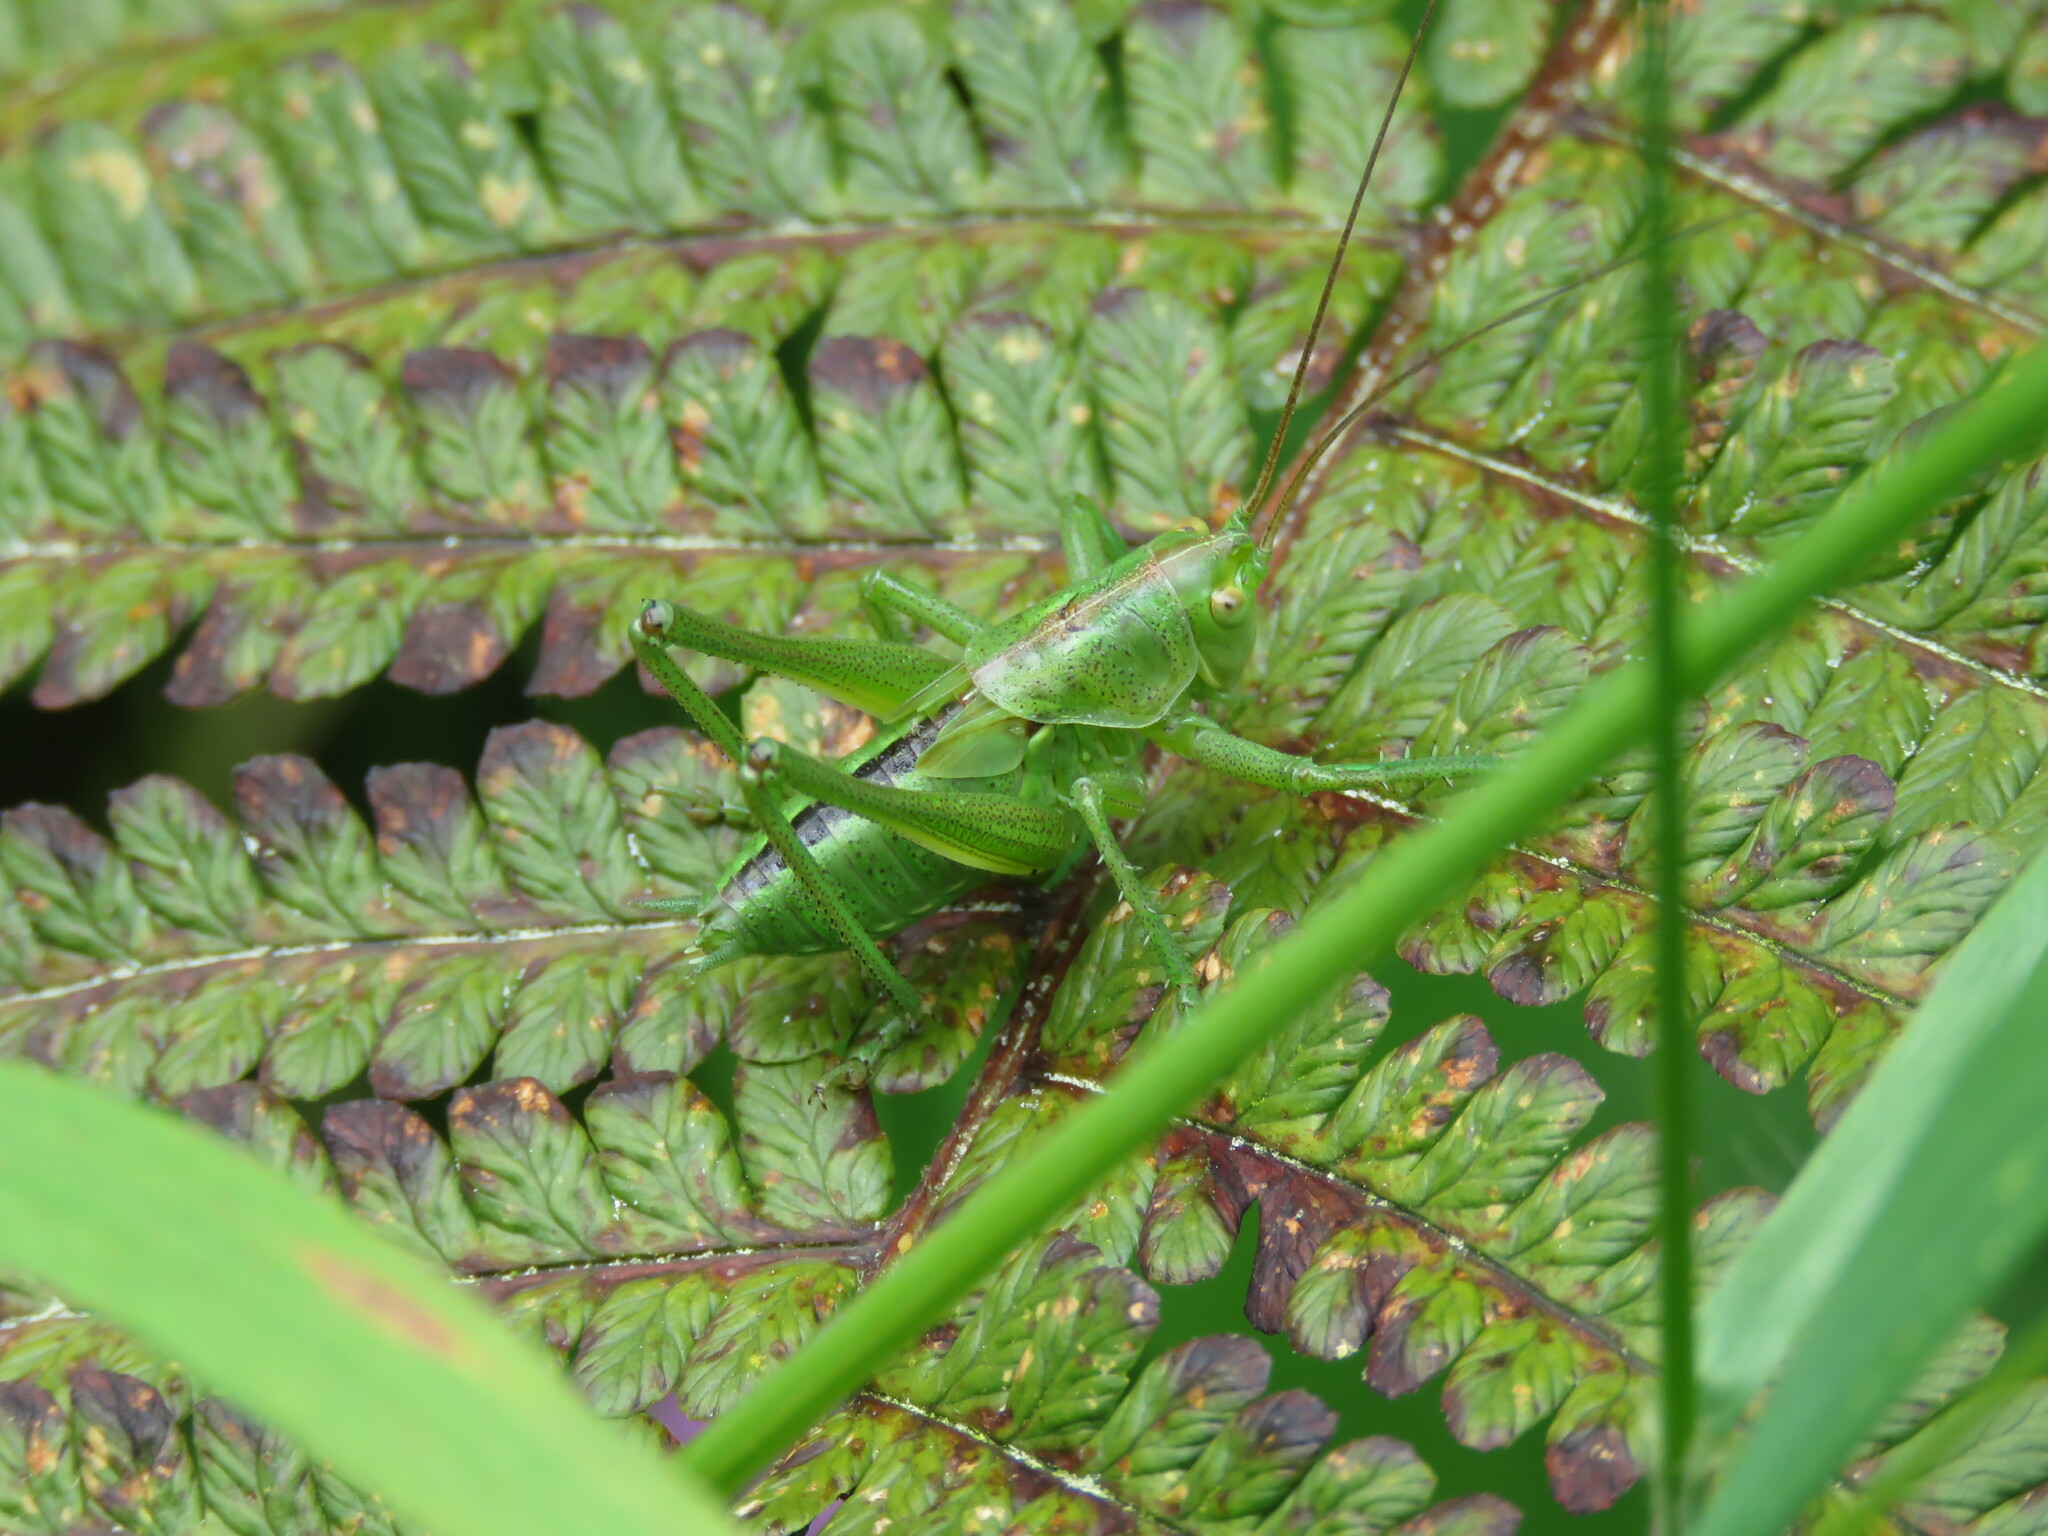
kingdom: Animalia
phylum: Arthropoda
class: Insecta
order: Orthoptera
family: Tettigoniidae
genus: Tettigonia
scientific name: Tettigonia viridissima
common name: Great green bush-cricket
